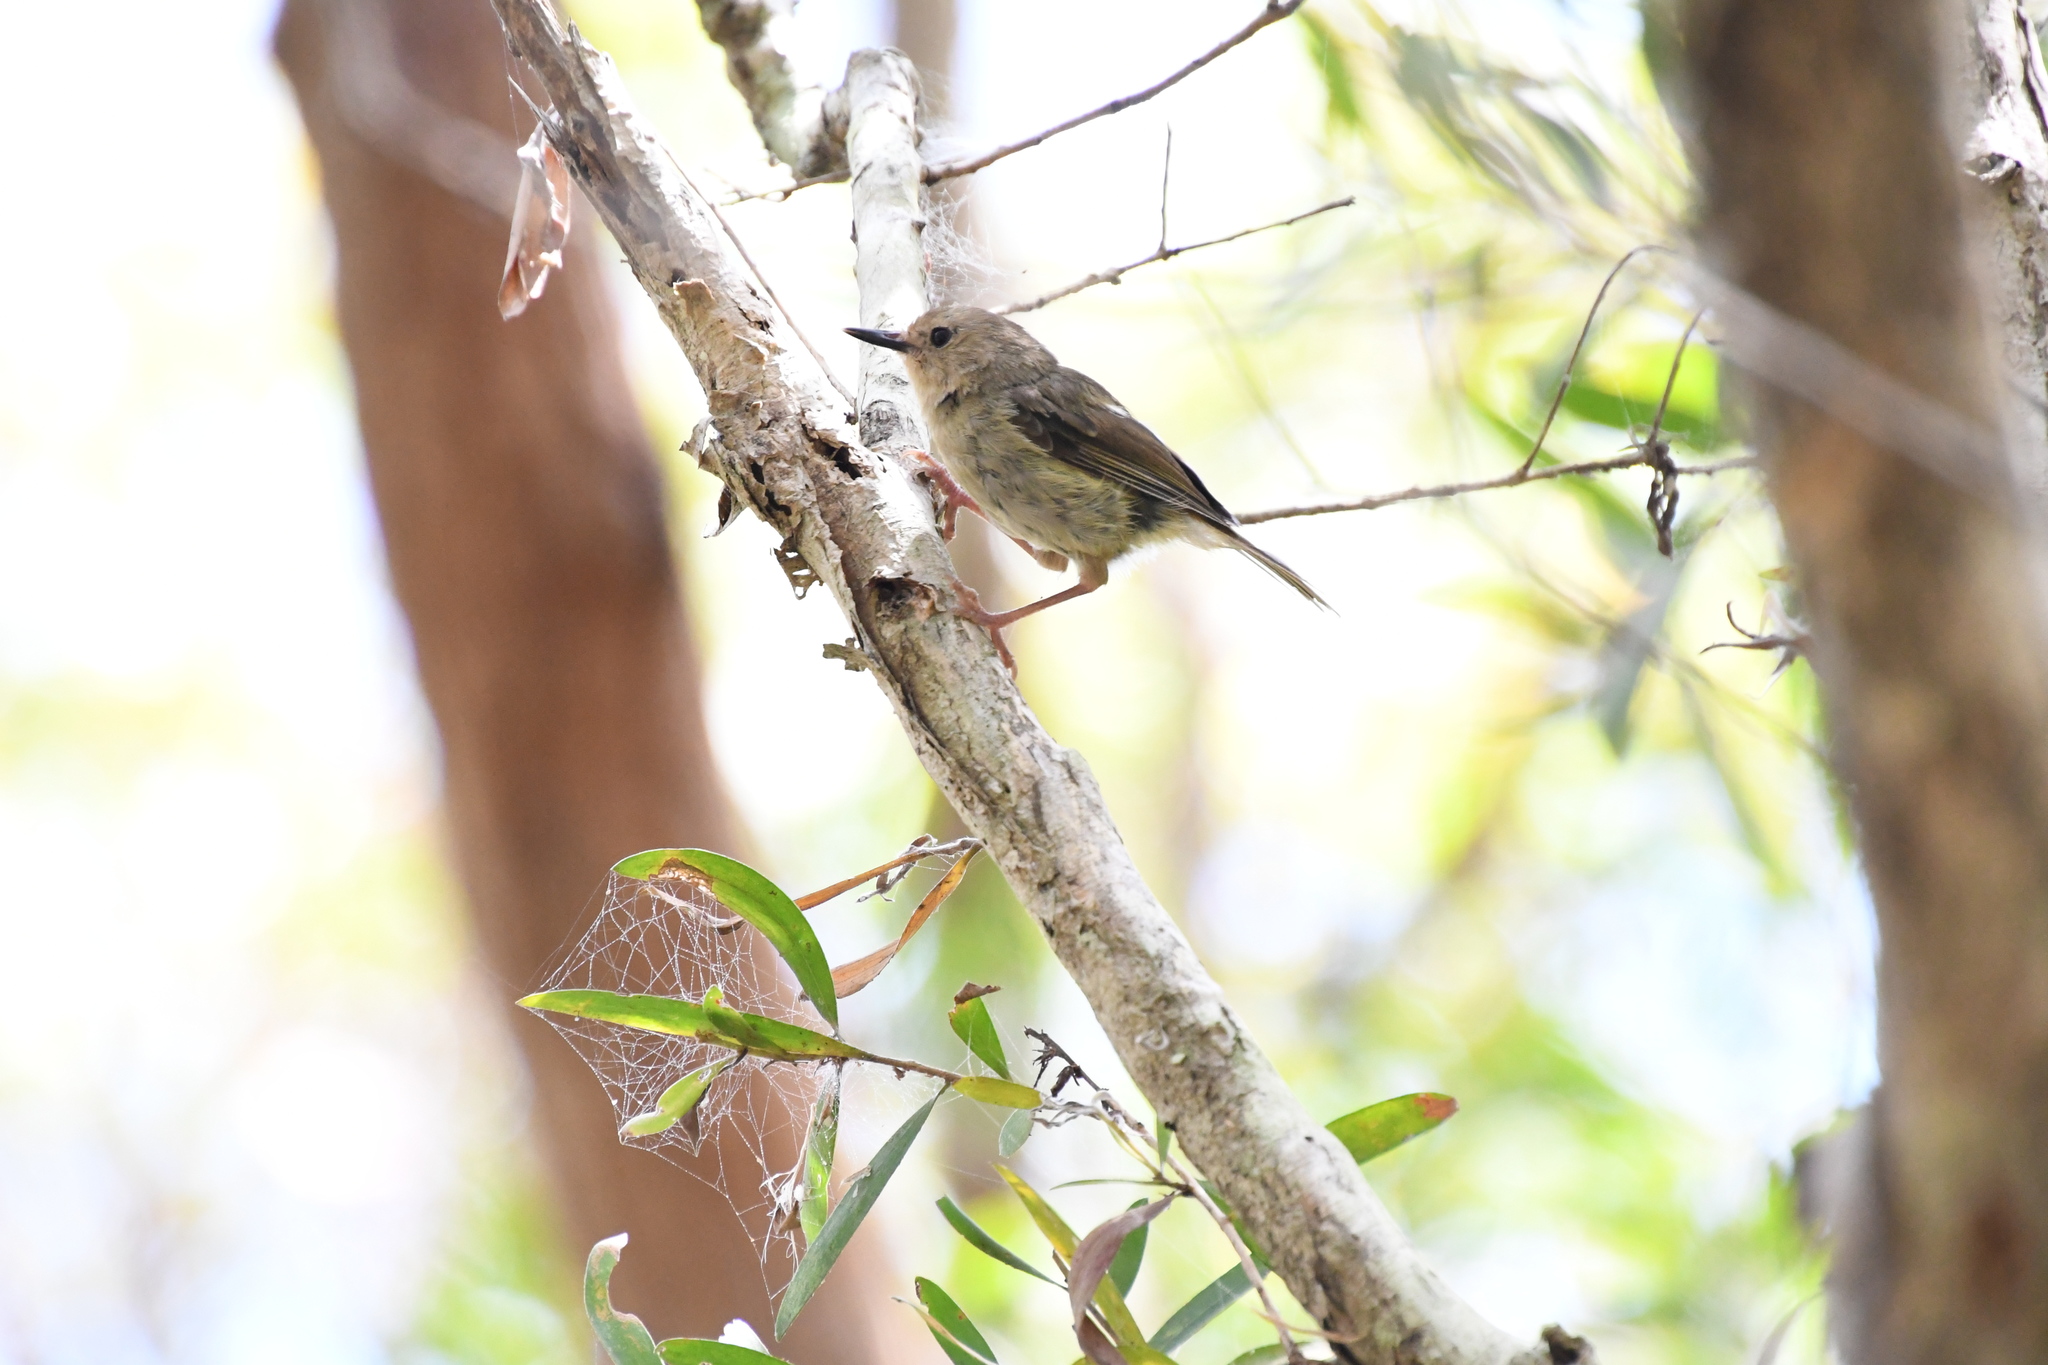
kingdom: Animalia
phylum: Chordata
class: Aves
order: Passeriformes
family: Acanthizidae
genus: Sericornis
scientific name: Sericornis magnirostra
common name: Large-billed scrubwren
